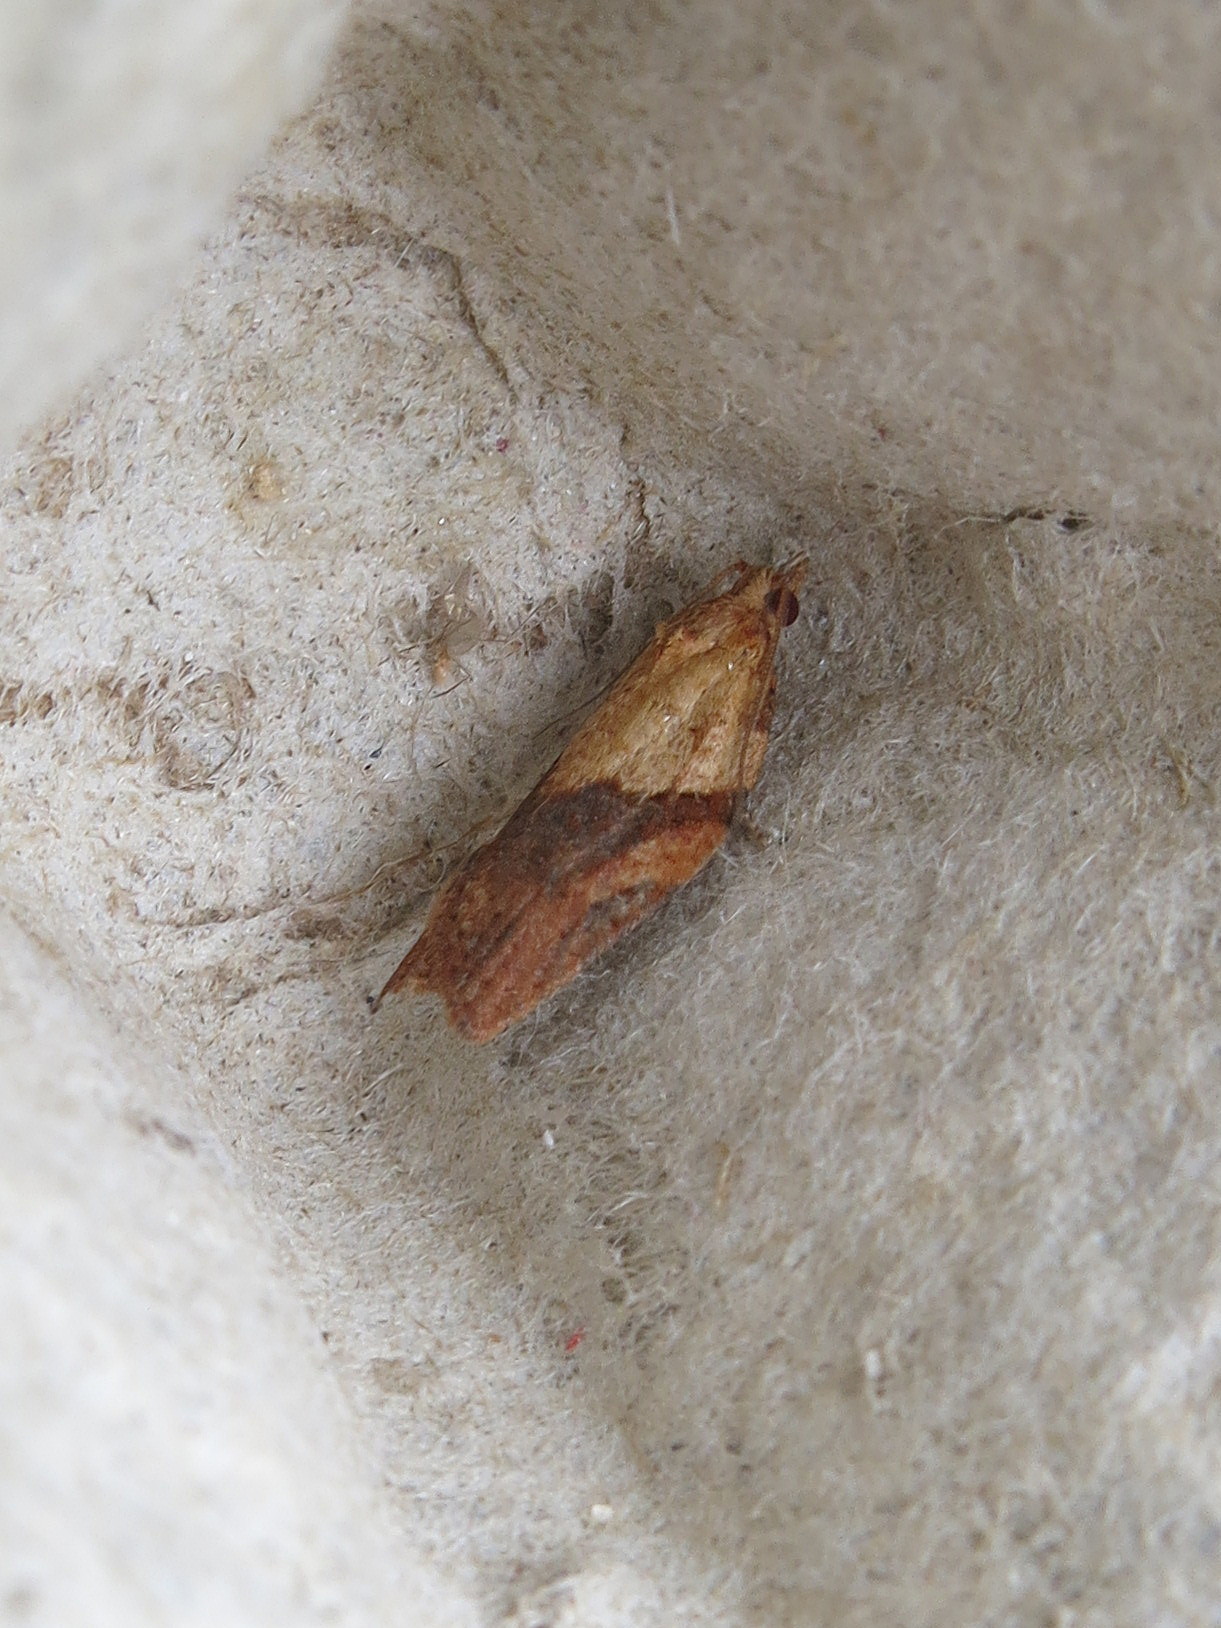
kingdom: Animalia
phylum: Arthropoda
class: Insecta
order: Lepidoptera
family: Tortricidae
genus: Epiphyas
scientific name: Epiphyas postvittana
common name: Light brown apple moth
